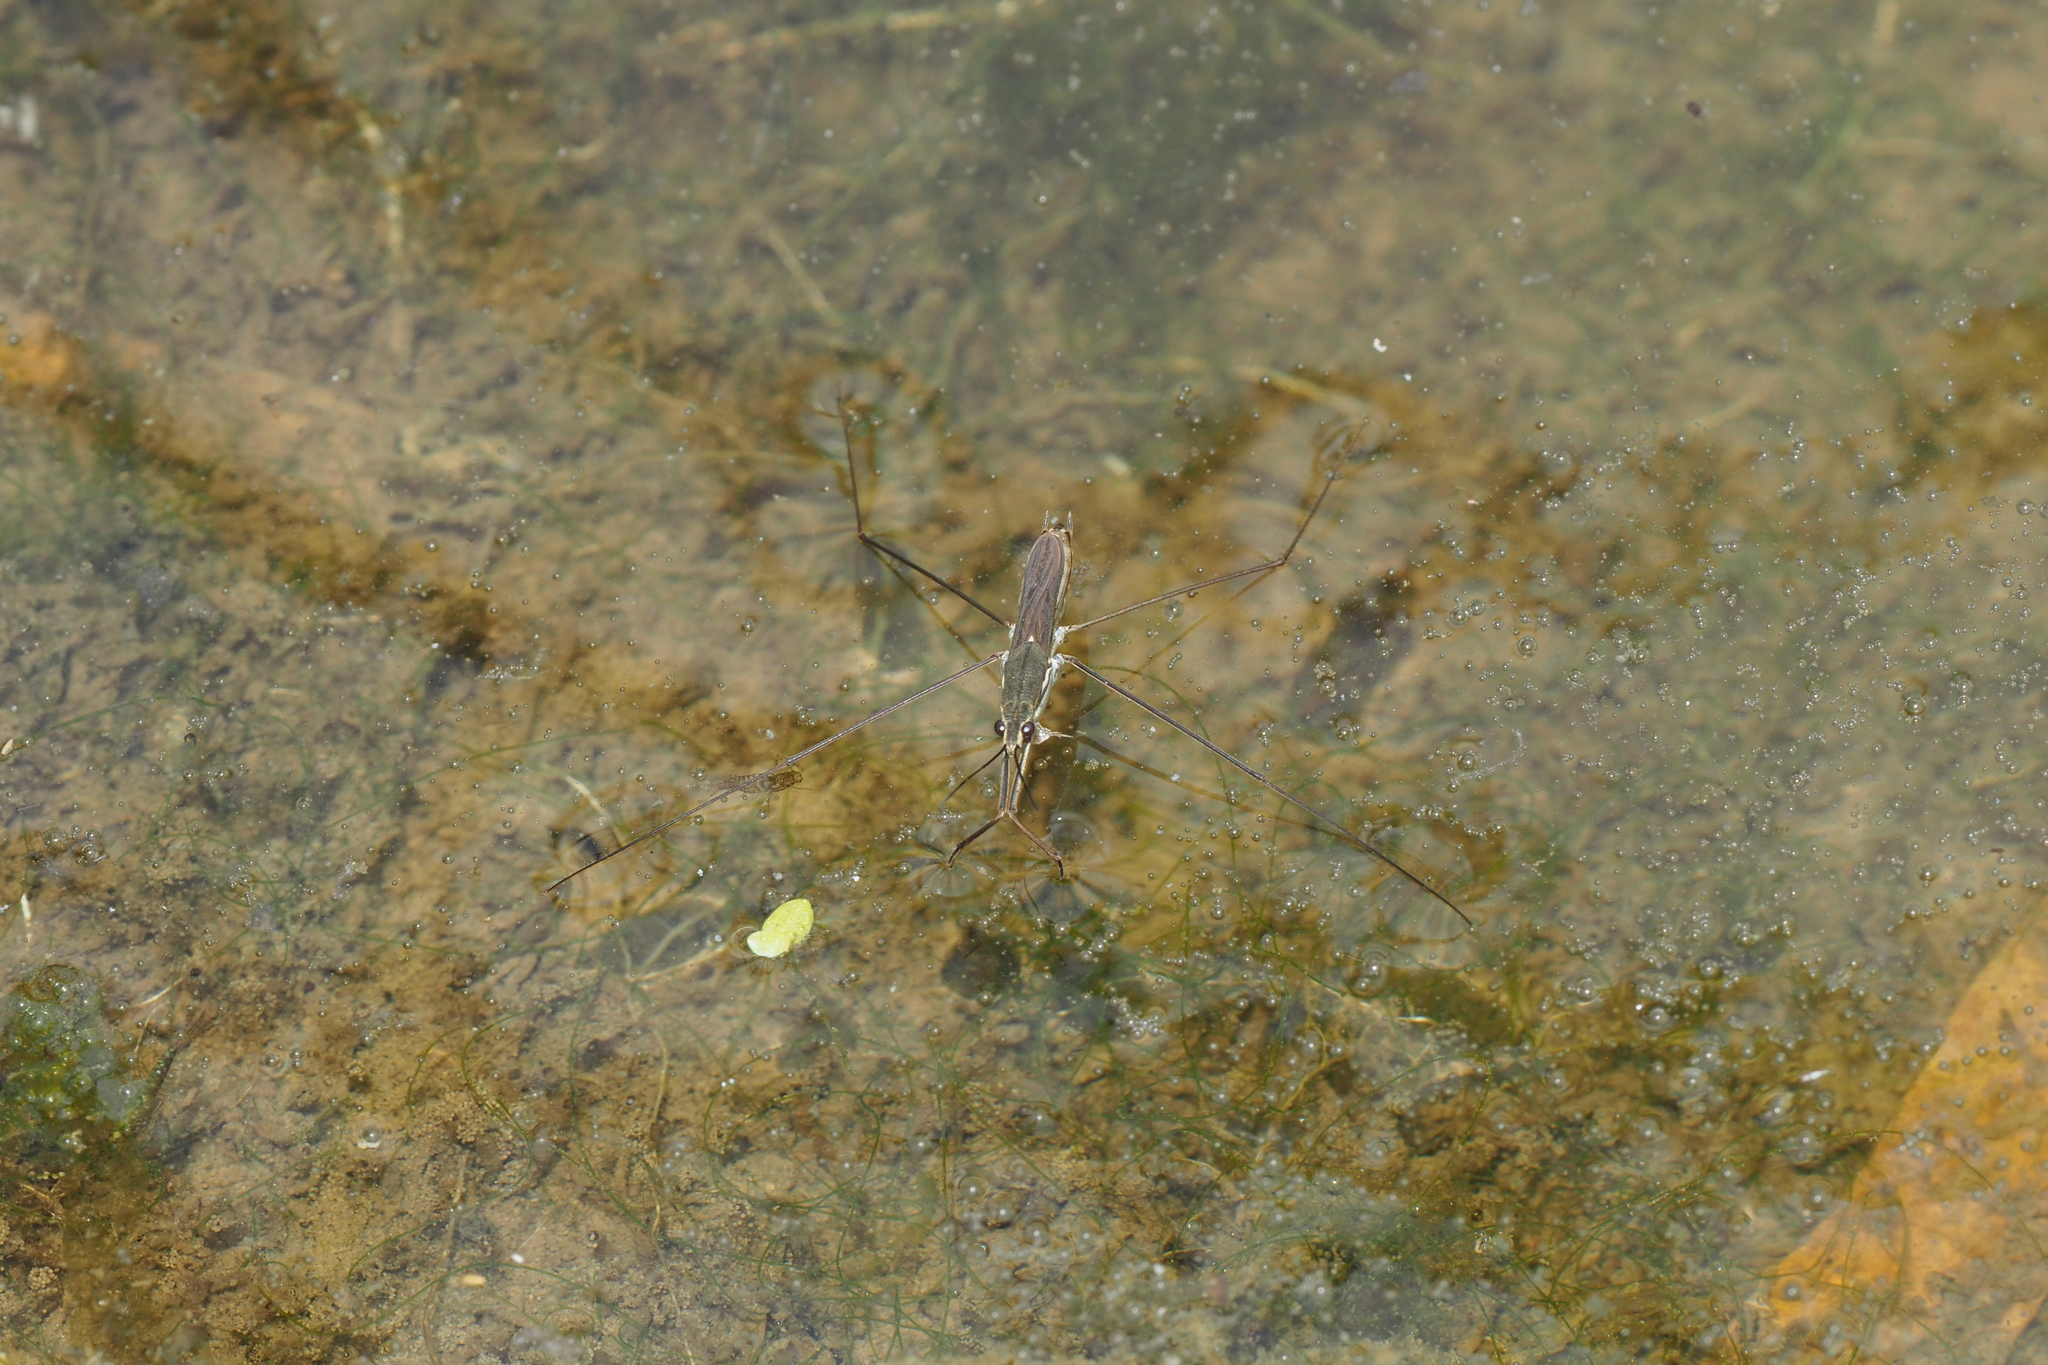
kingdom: Animalia
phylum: Arthropoda
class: Insecta
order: Hemiptera
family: Gerridae
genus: Aquarius
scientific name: Aquarius paludum
